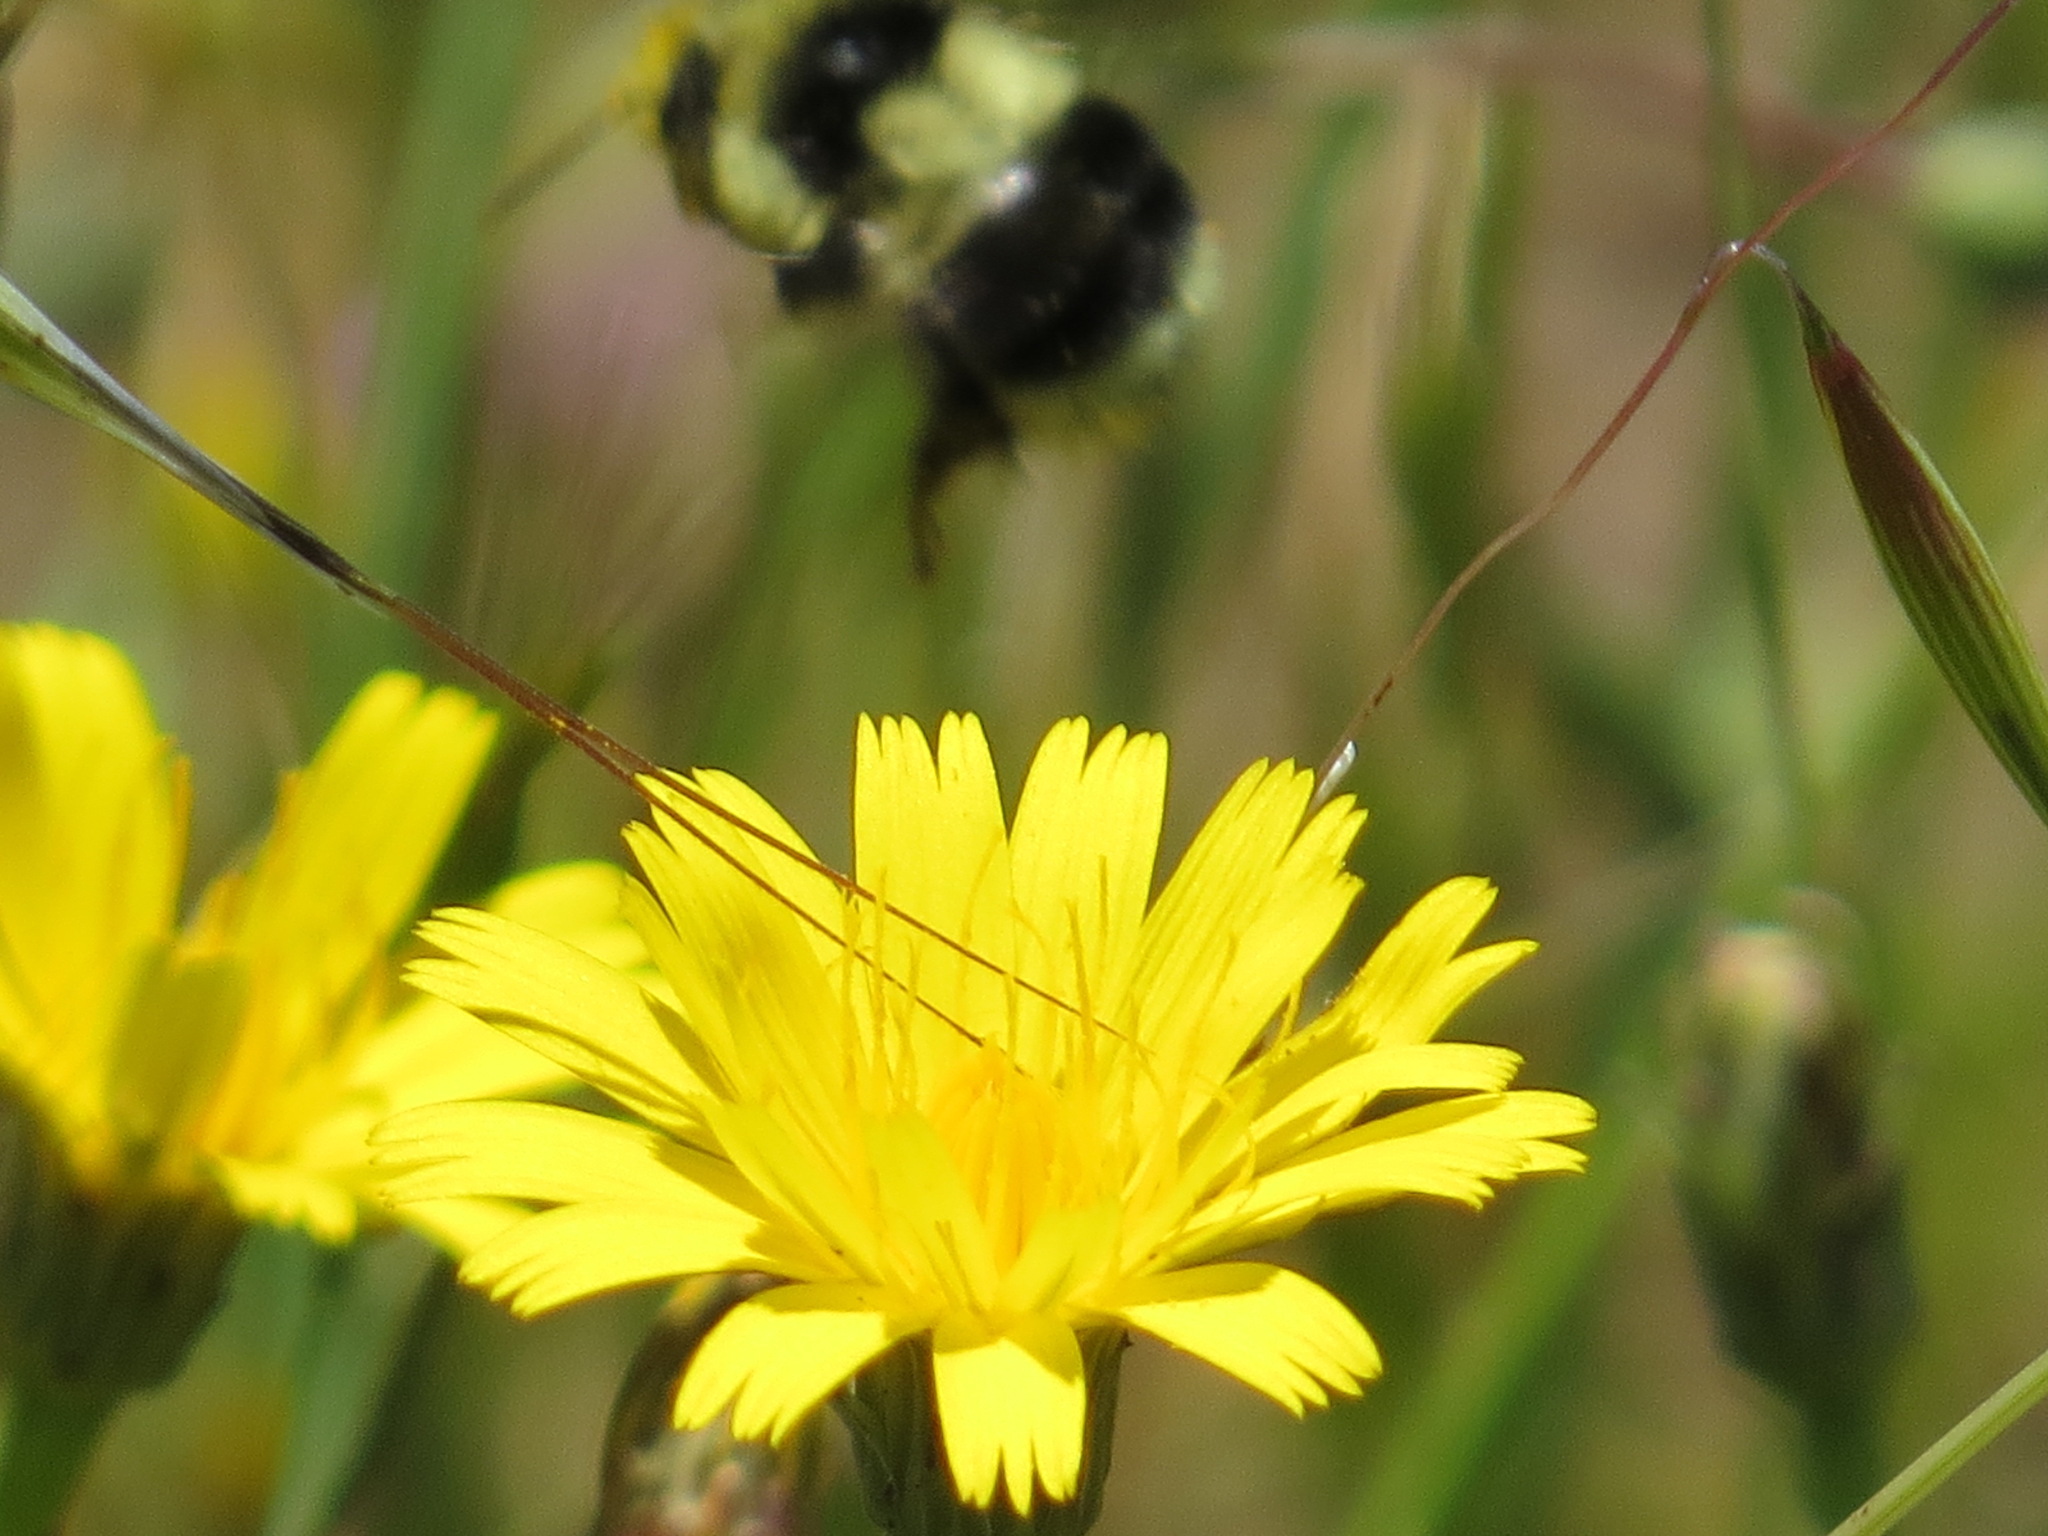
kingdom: Animalia
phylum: Arthropoda
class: Insecta
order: Hymenoptera
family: Apidae
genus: Bombus
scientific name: Bombus melanopygus
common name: Black tail bumble bee
